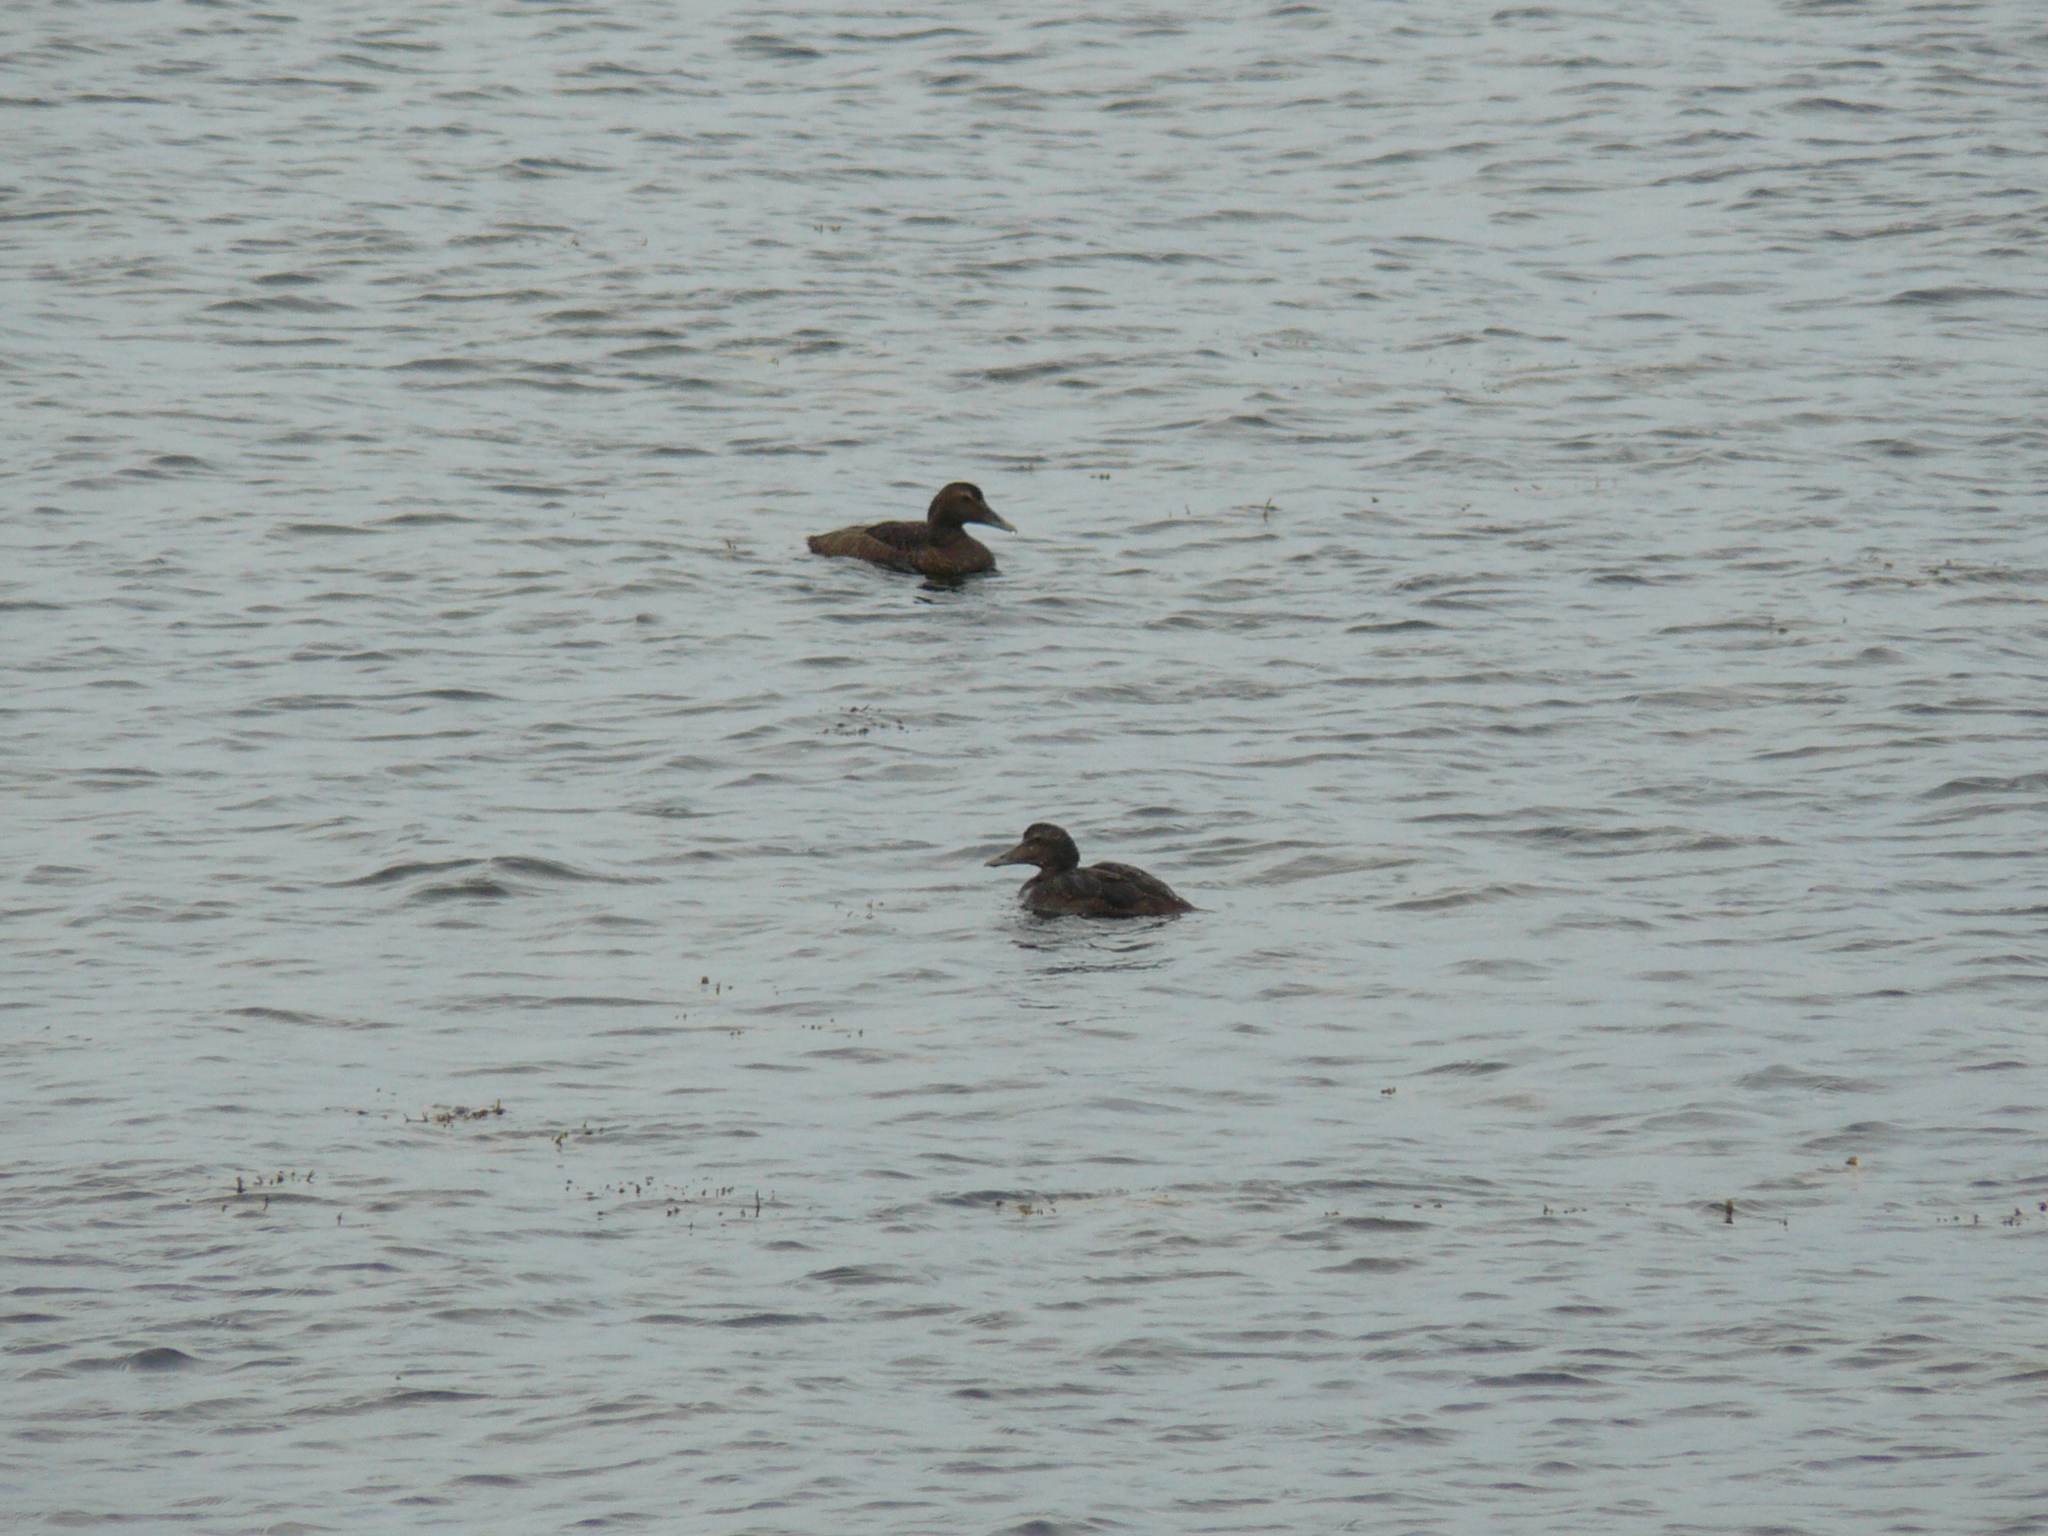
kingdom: Animalia
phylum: Chordata
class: Aves
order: Anseriformes
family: Anatidae
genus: Somateria
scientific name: Somateria mollissima
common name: Common eider
